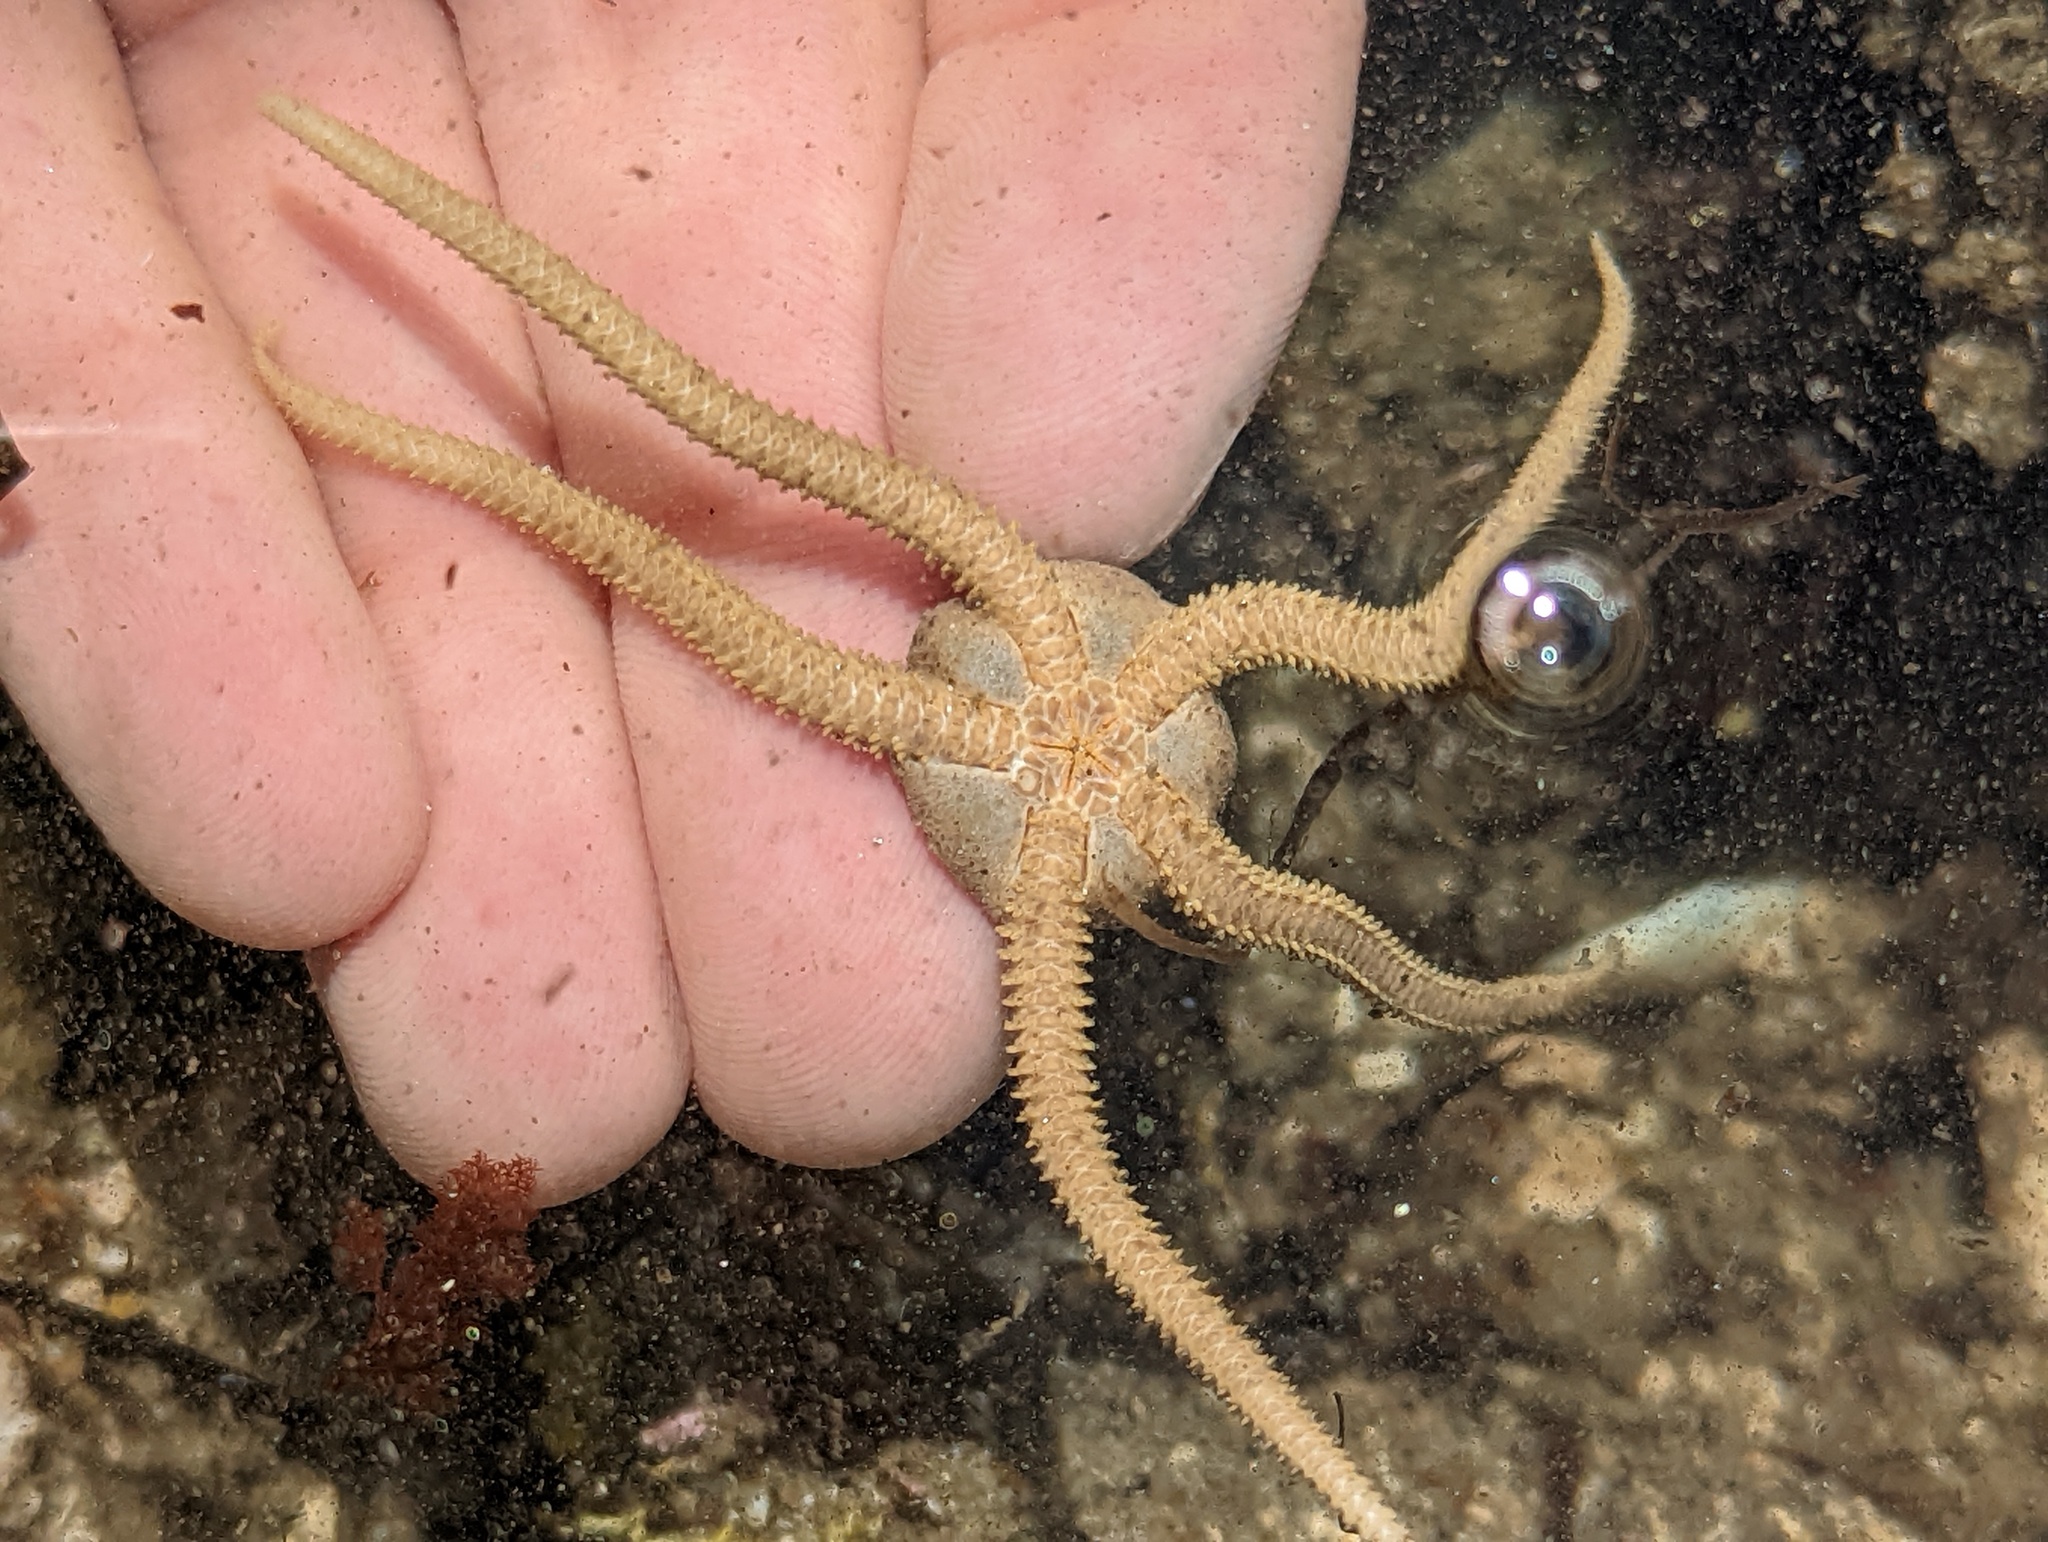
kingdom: Animalia
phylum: Echinodermata
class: Ophiuroidea
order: Amphilepidida
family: Hemieuryalidae
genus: Ophioplocus
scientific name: Ophioplocus esmarki
